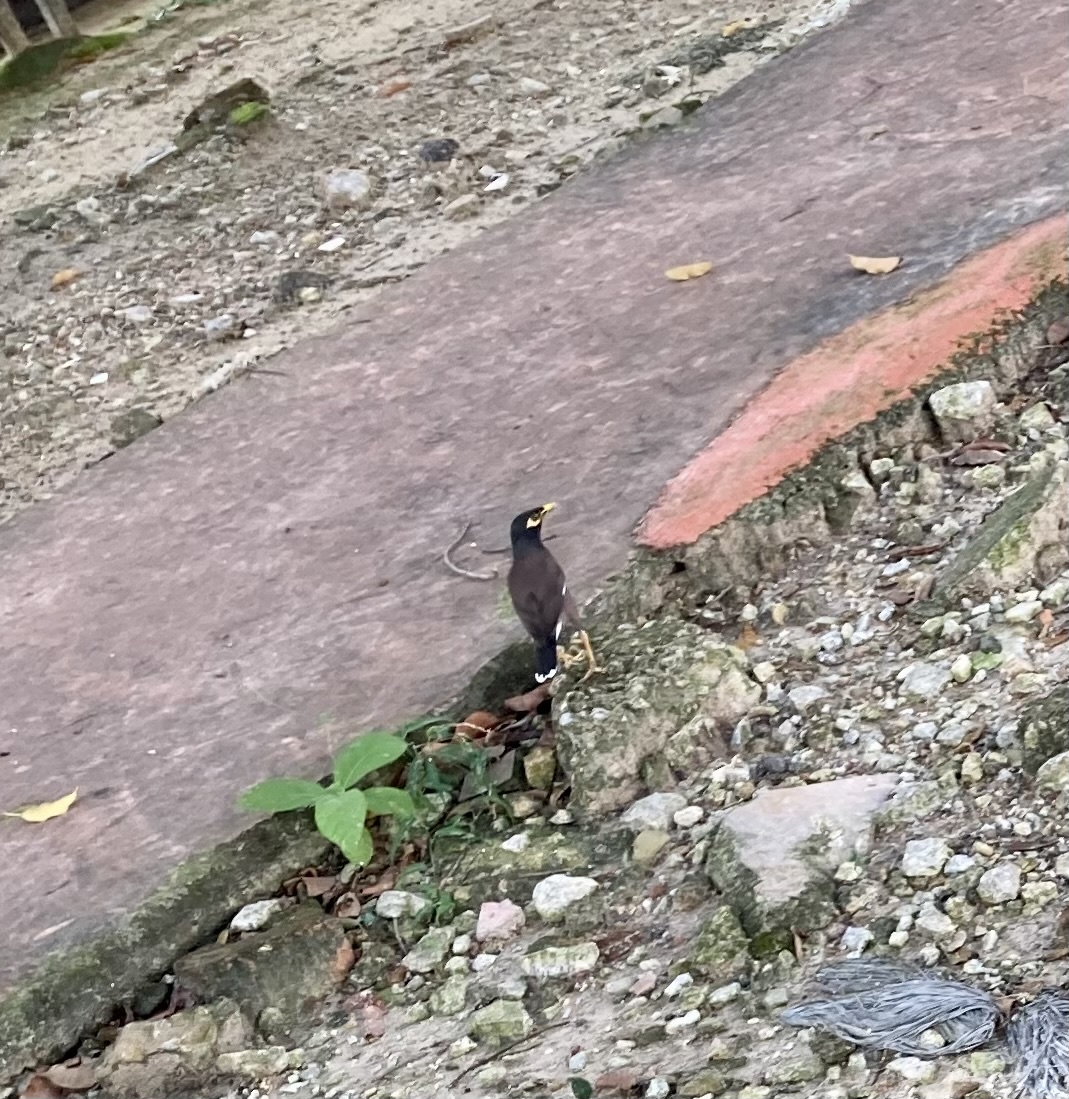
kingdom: Animalia
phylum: Chordata
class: Aves
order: Passeriformes
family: Sturnidae
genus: Acridotheres
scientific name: Acridotheres tristis
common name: Common myna
